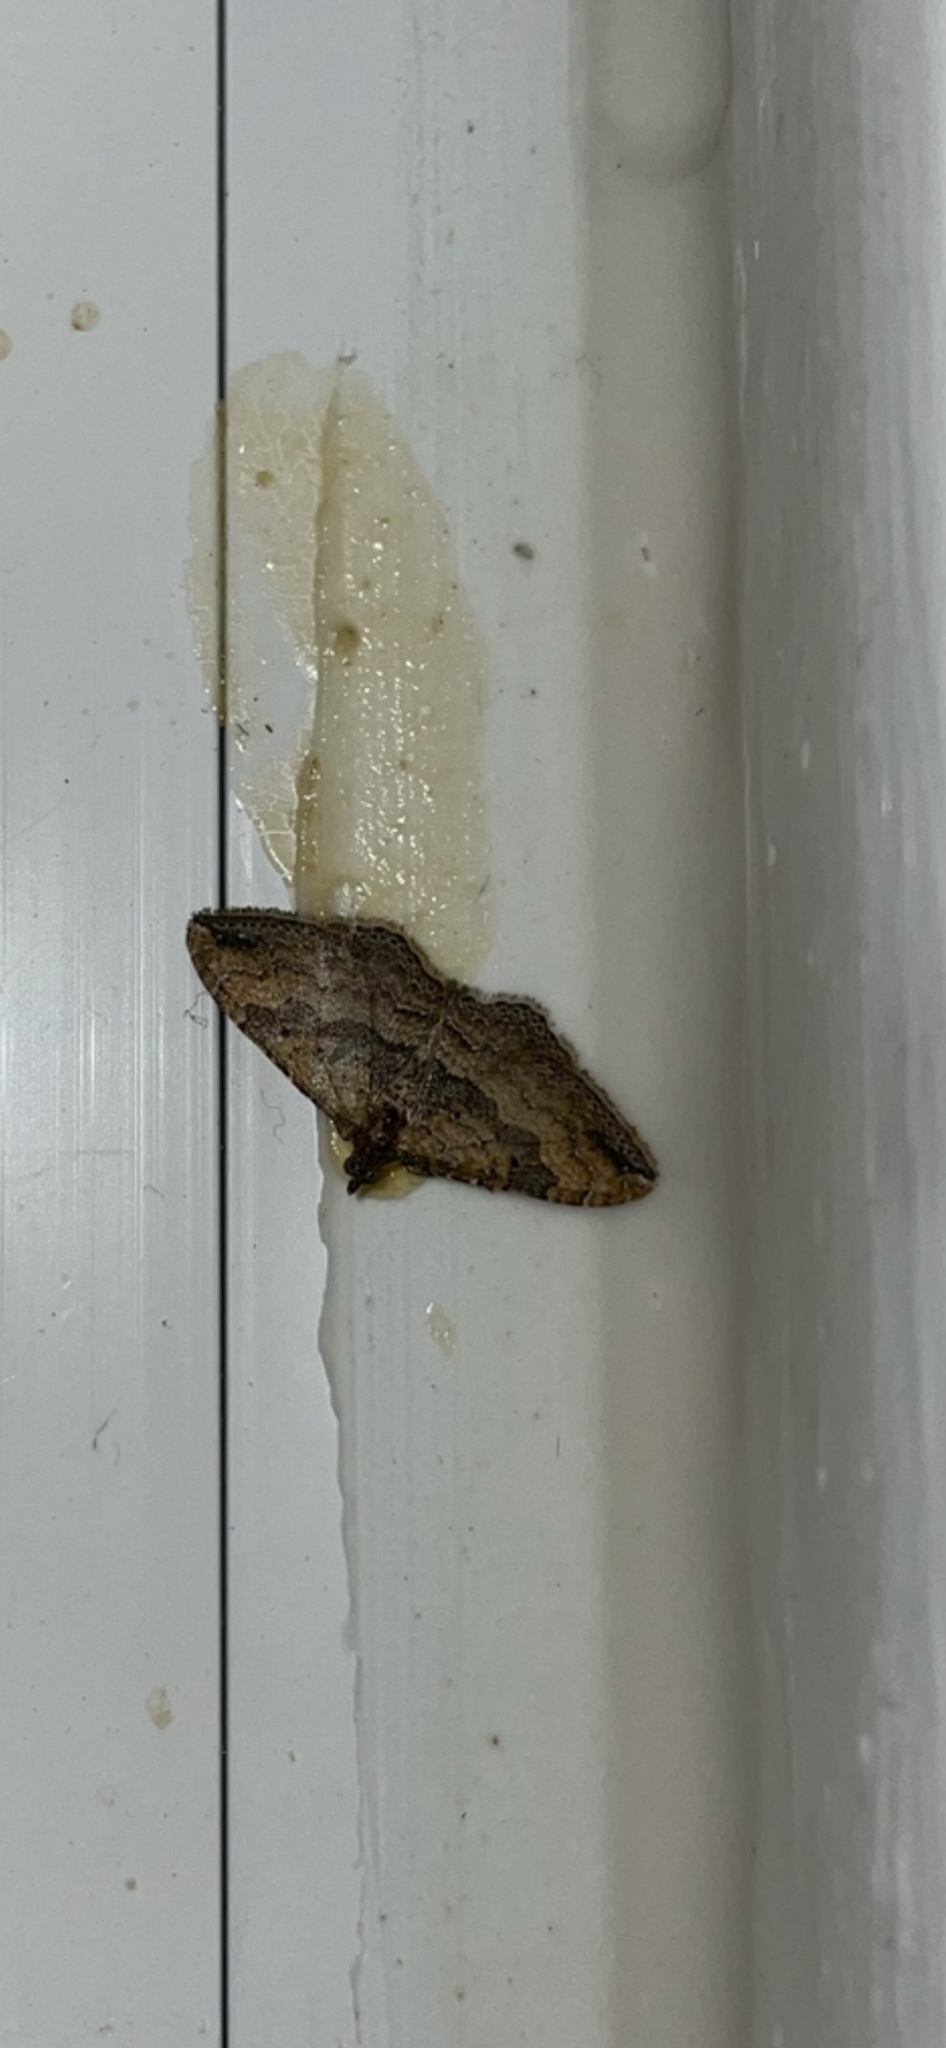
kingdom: Animalia
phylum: Arthropoda
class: Insecta
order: Lepidoptera
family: Geometridae
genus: Orthonama
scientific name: Orthonama obstipata
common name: The gem
